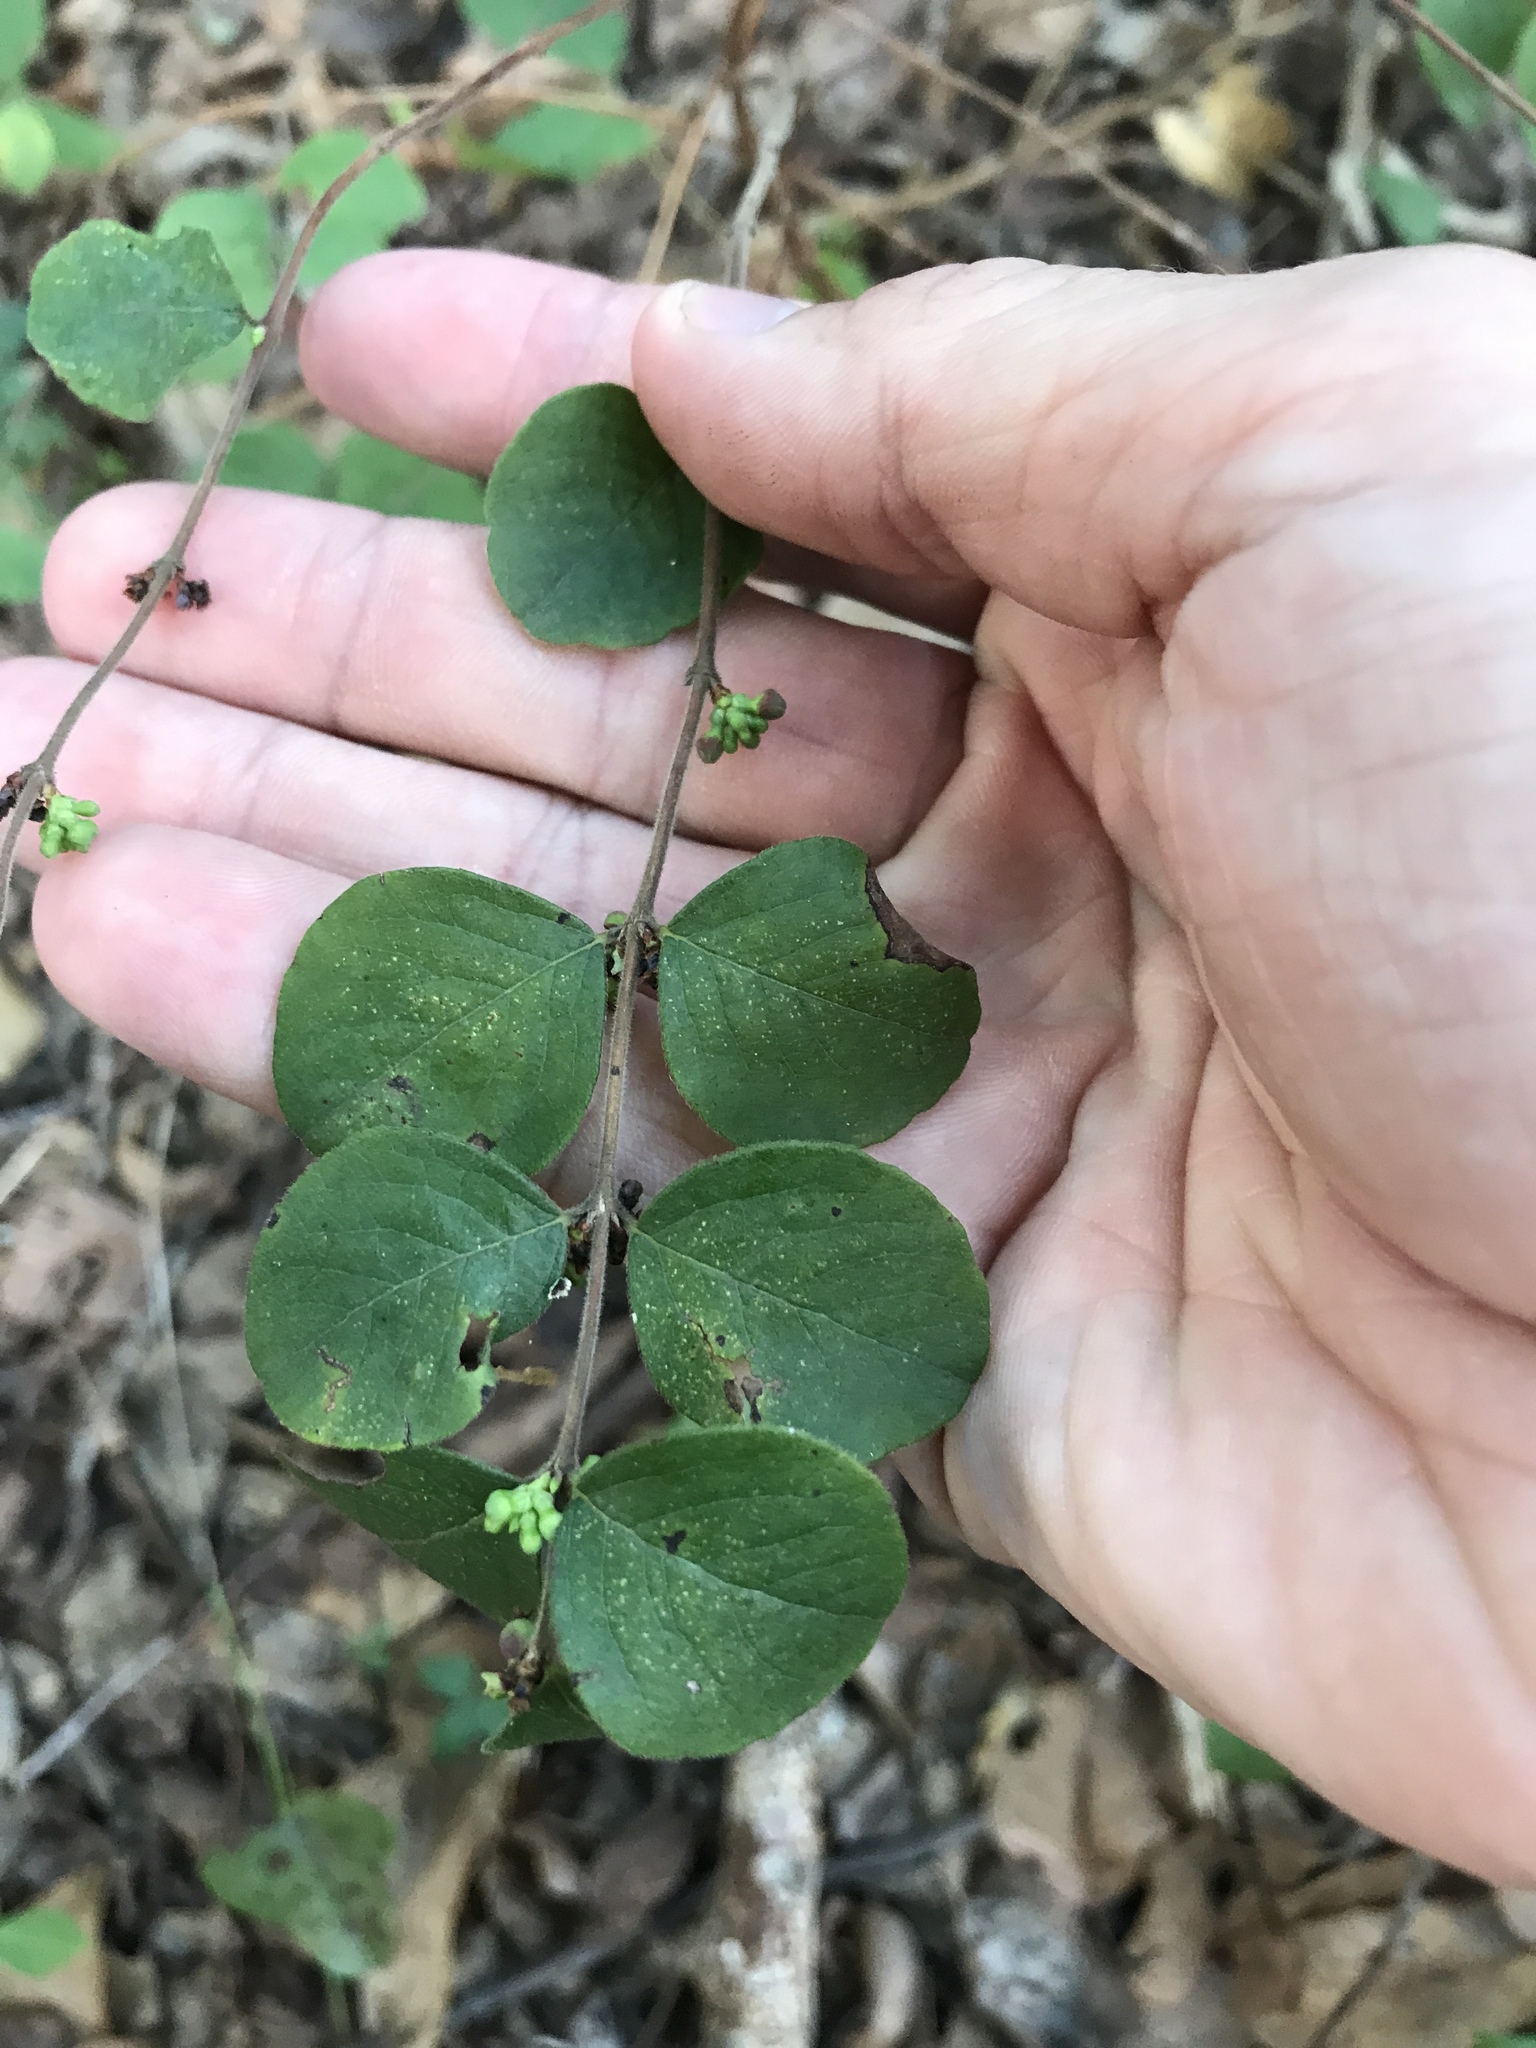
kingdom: Plantae
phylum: Tracheophyta
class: Magnoliopsida
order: Dipsacales
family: Caprifoliaceae
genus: Symphoricarpos
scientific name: Symphoricarpos orbiculatus
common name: Coralberry
